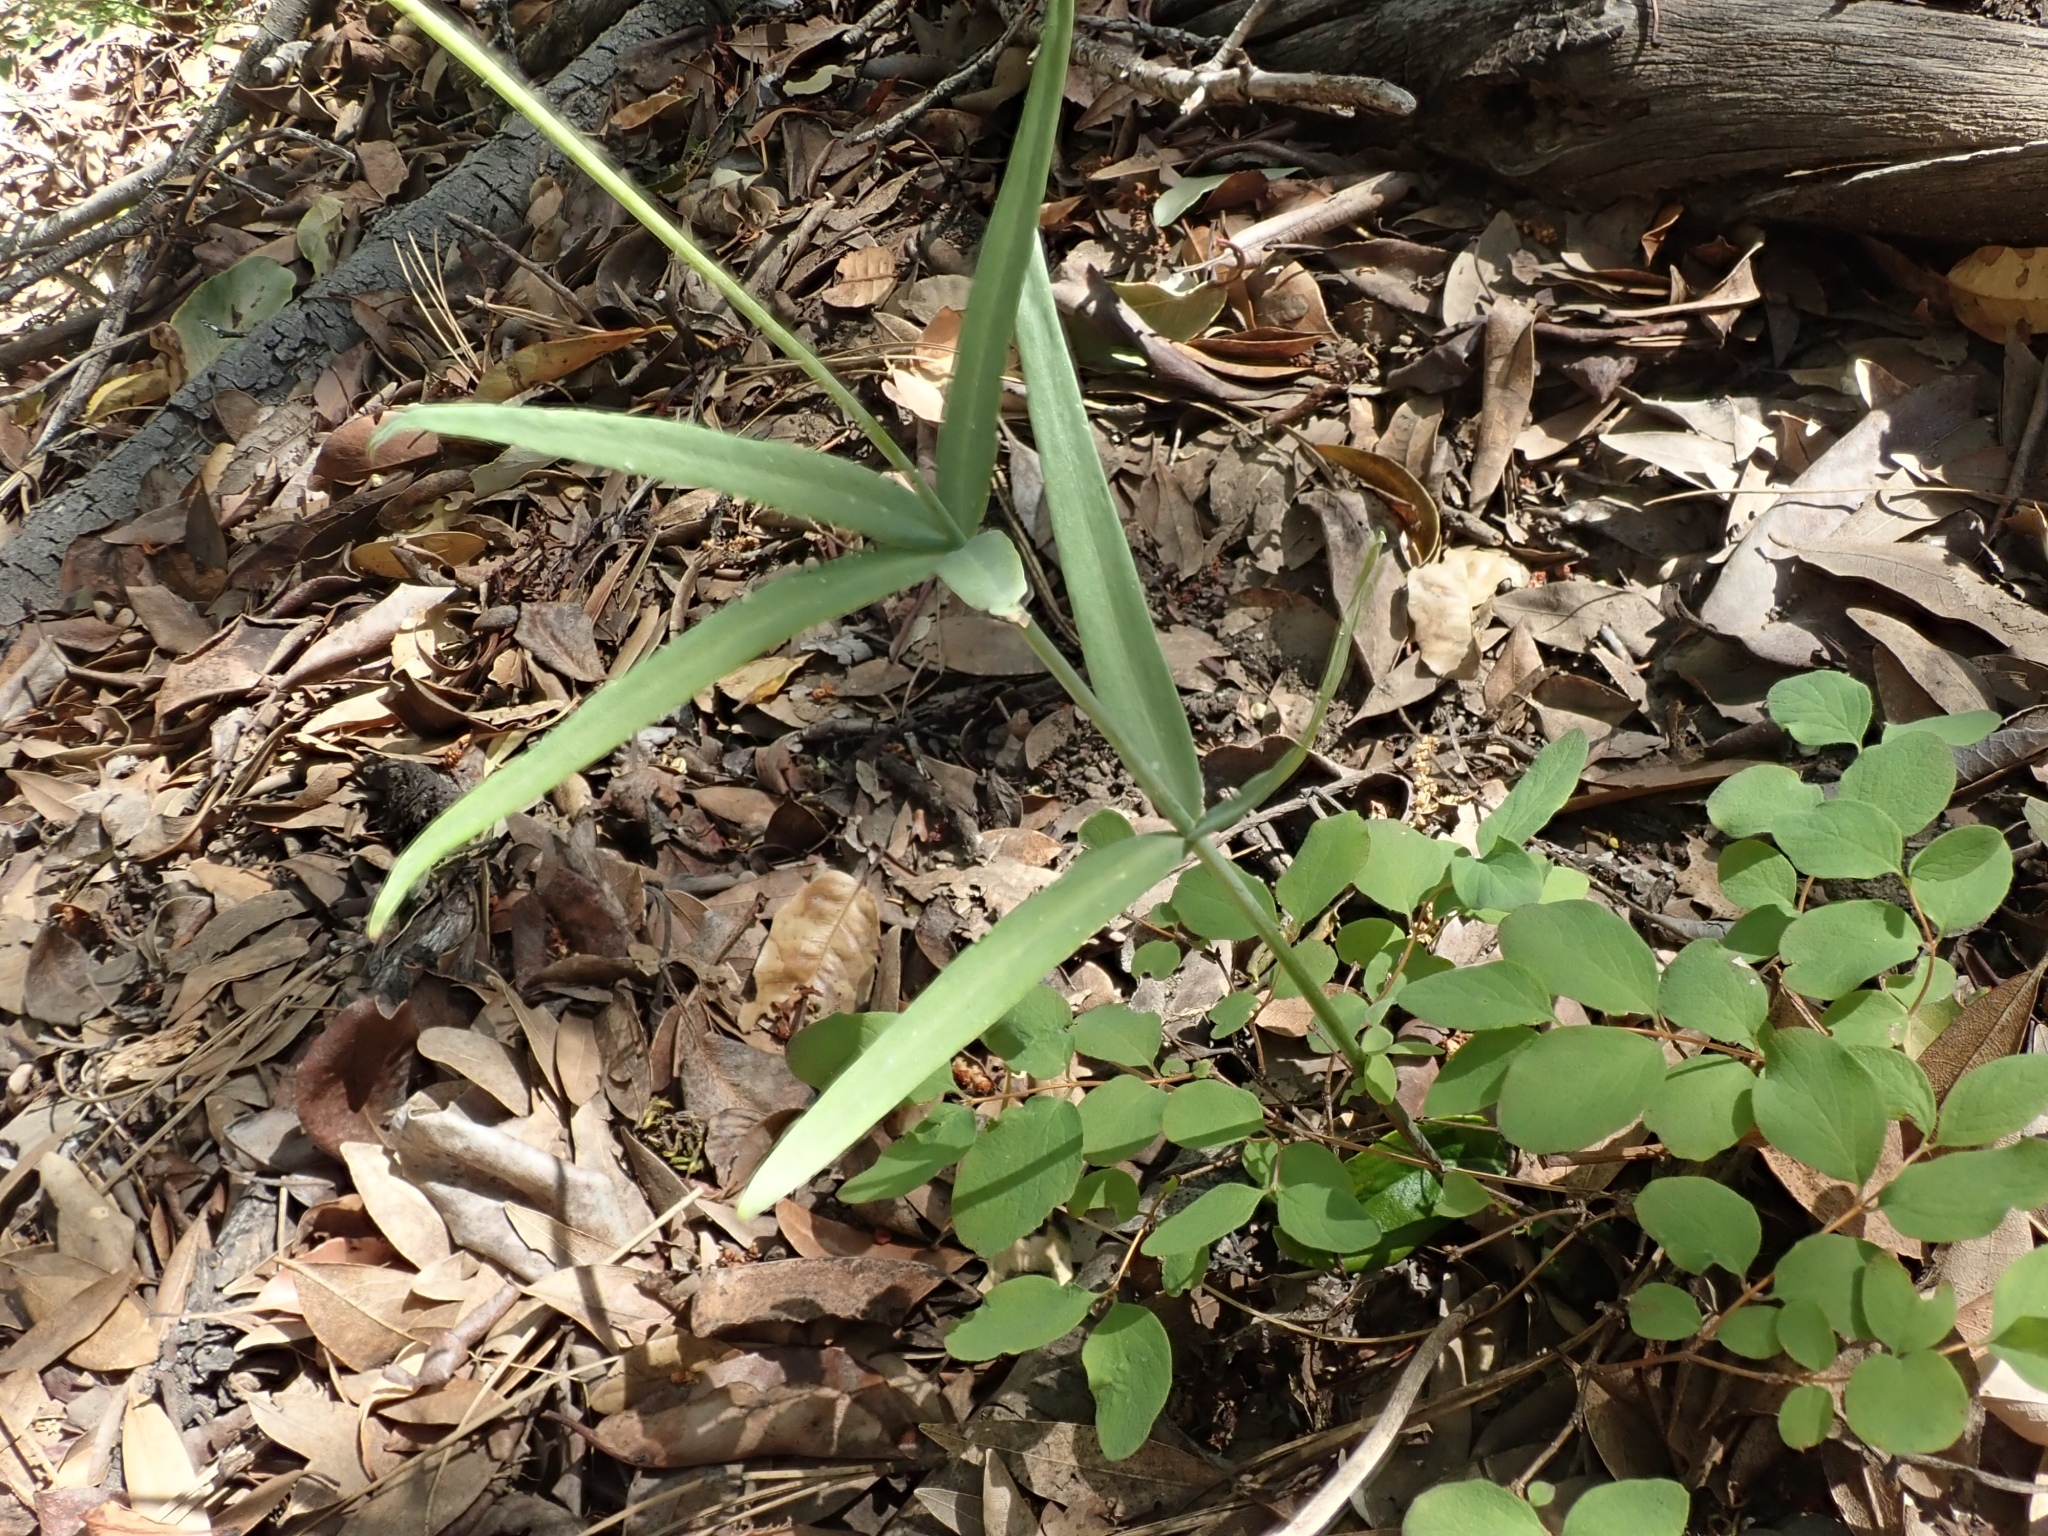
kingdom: Plantae
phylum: Tracheophyta
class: Liliopsida
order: Liliales
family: Liliaceae
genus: Fritillaria
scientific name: Fritillaria affinis
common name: Ojai fritillary
